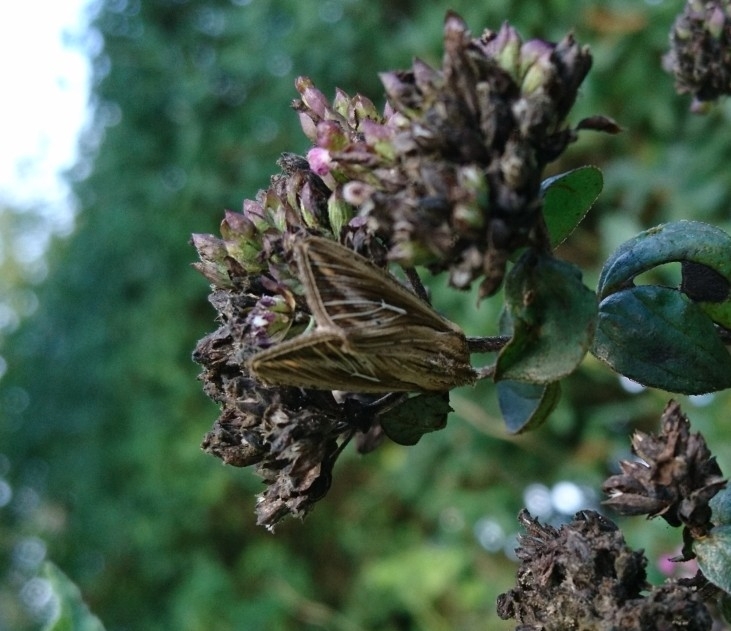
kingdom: Animalia
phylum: Arthropoda
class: Insecta
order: Lepidoptera
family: Noctuidae
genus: Mythimna
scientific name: Mythimna l-album
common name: L-album wainscot
